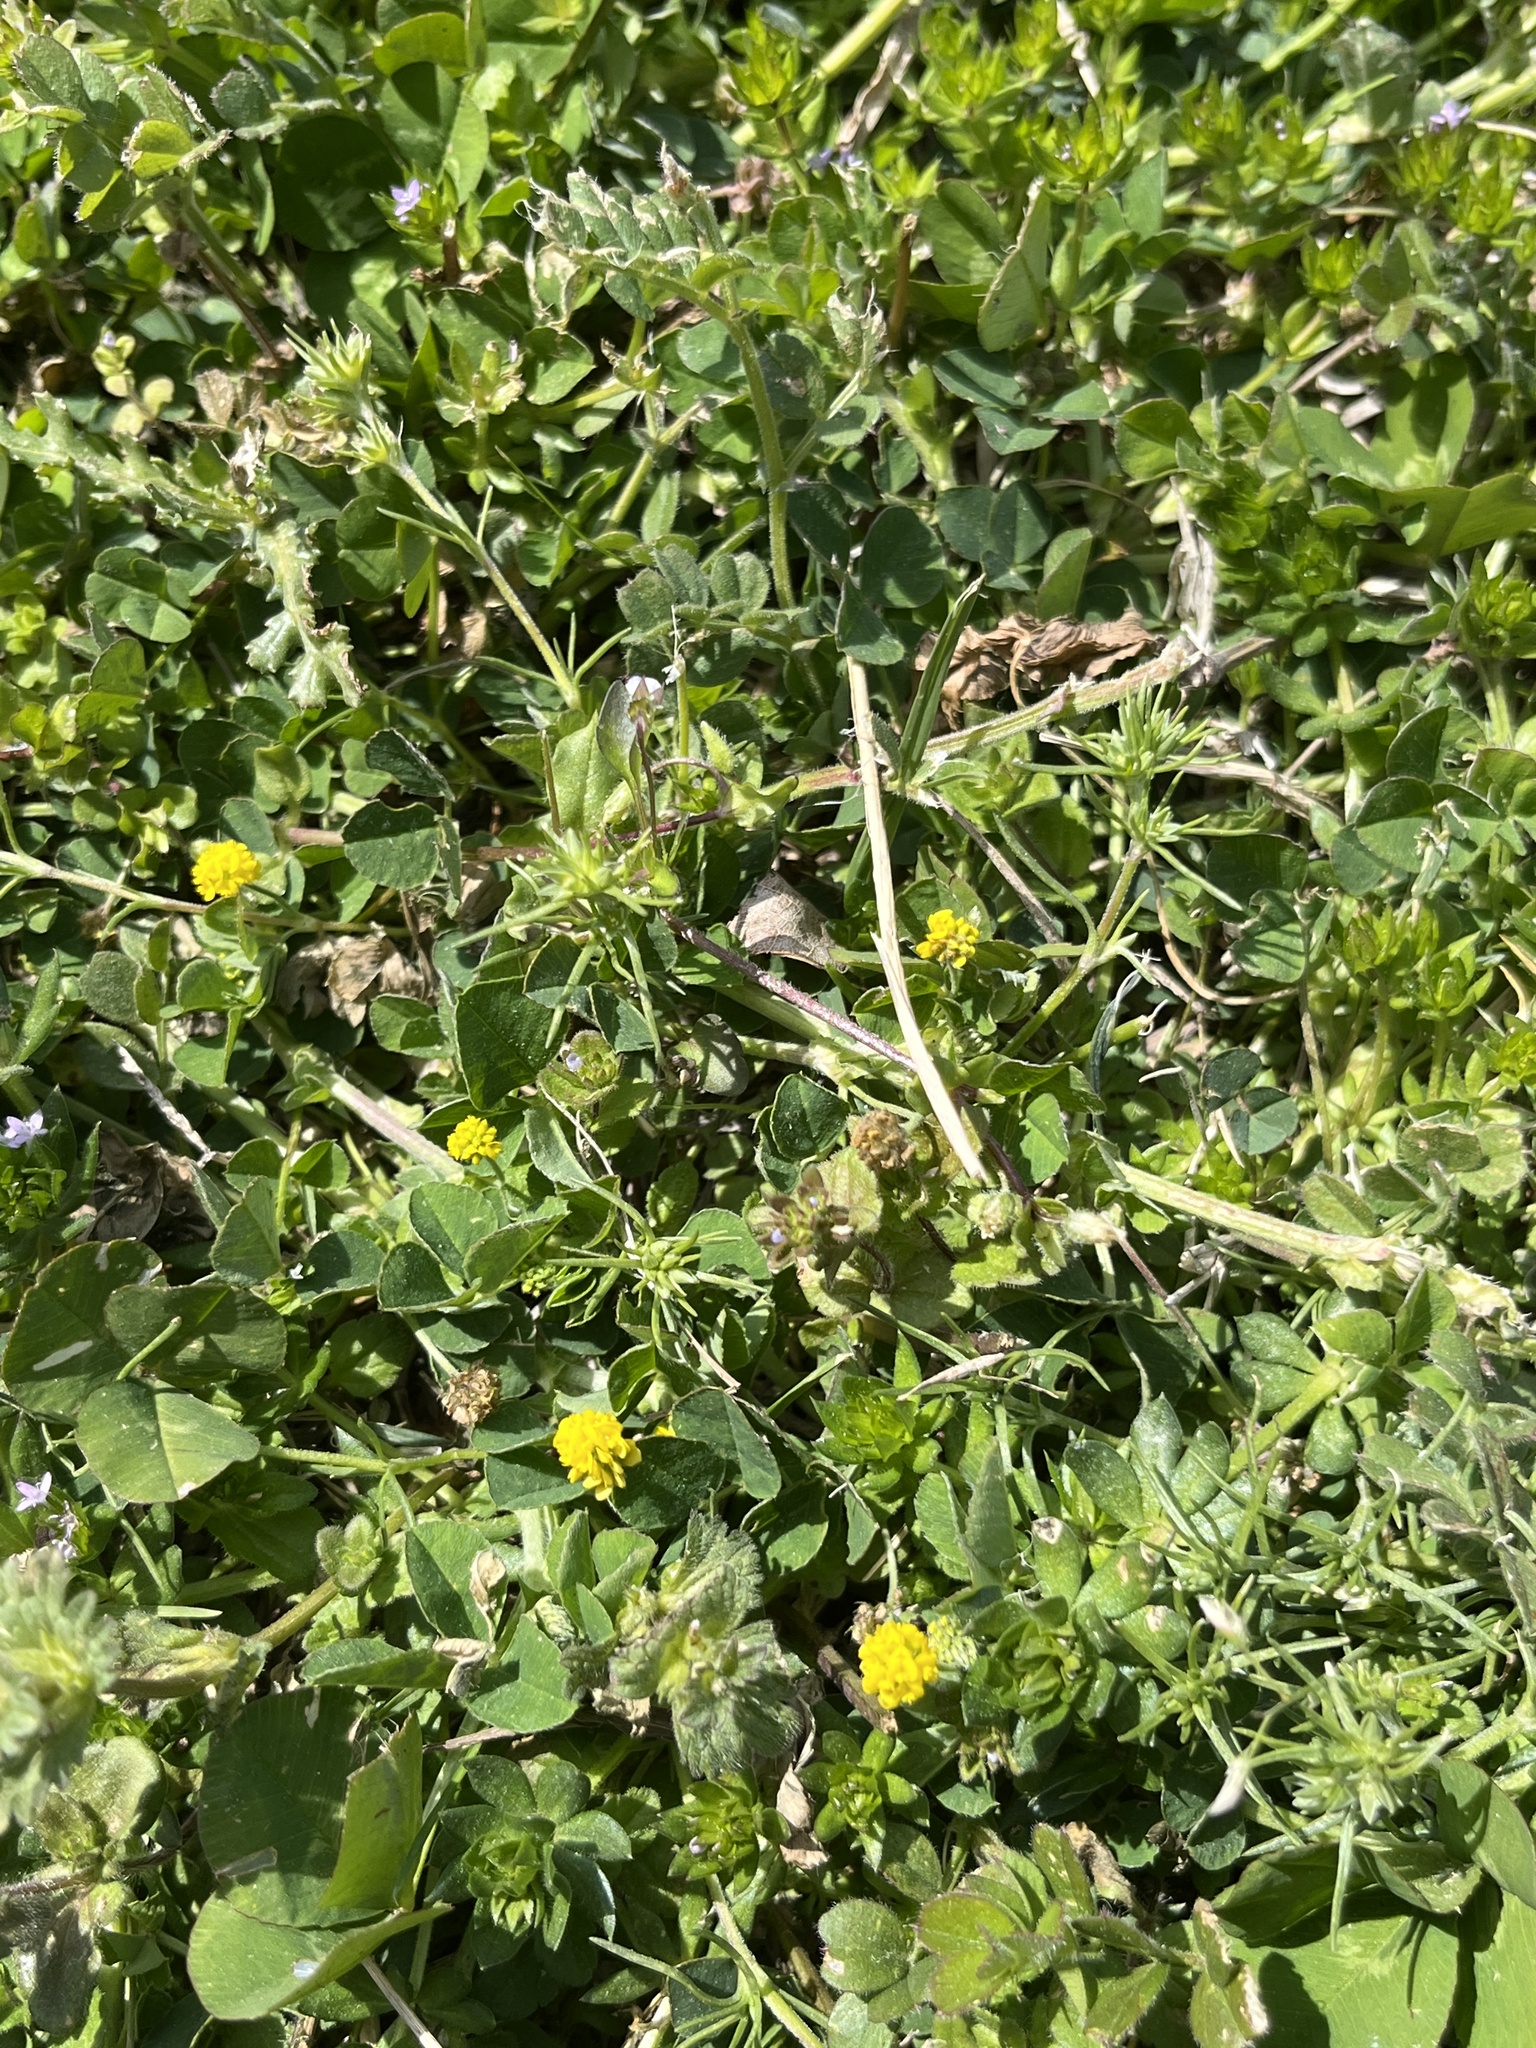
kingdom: Plantae
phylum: Tracheophyta
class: Magnoliopsida
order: Fabales
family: Fabaceae
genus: Medicago
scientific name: Medicago lupulina
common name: Black medick
